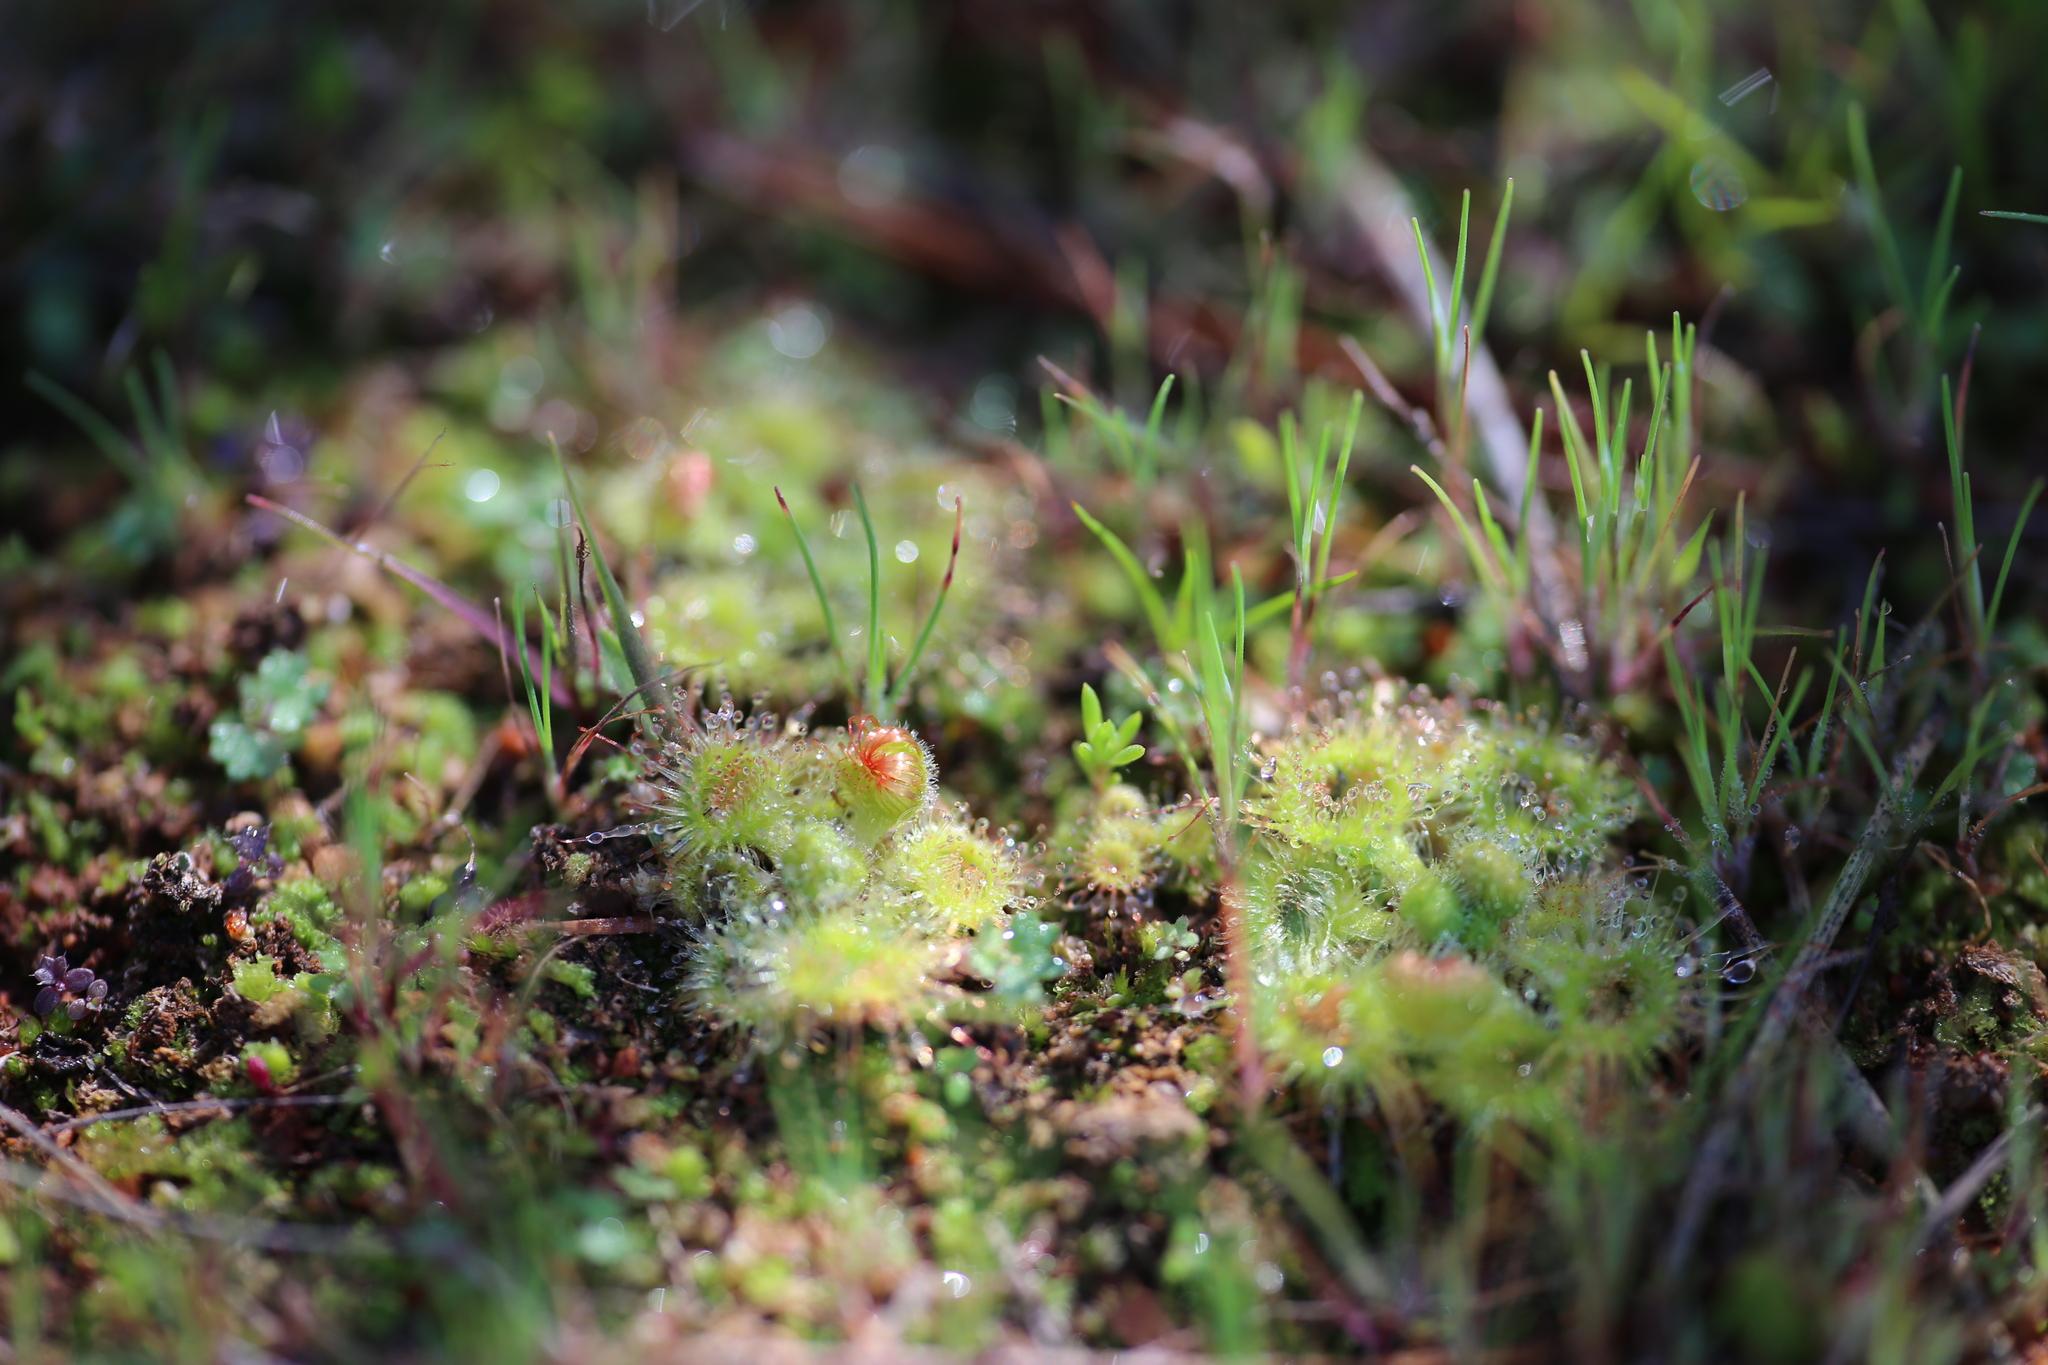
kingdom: Plantae
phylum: Tracheophyta
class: Magnoliopsida
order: Caryophyllales
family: Droseraceae
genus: Drosera
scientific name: Drosera glanduligera
